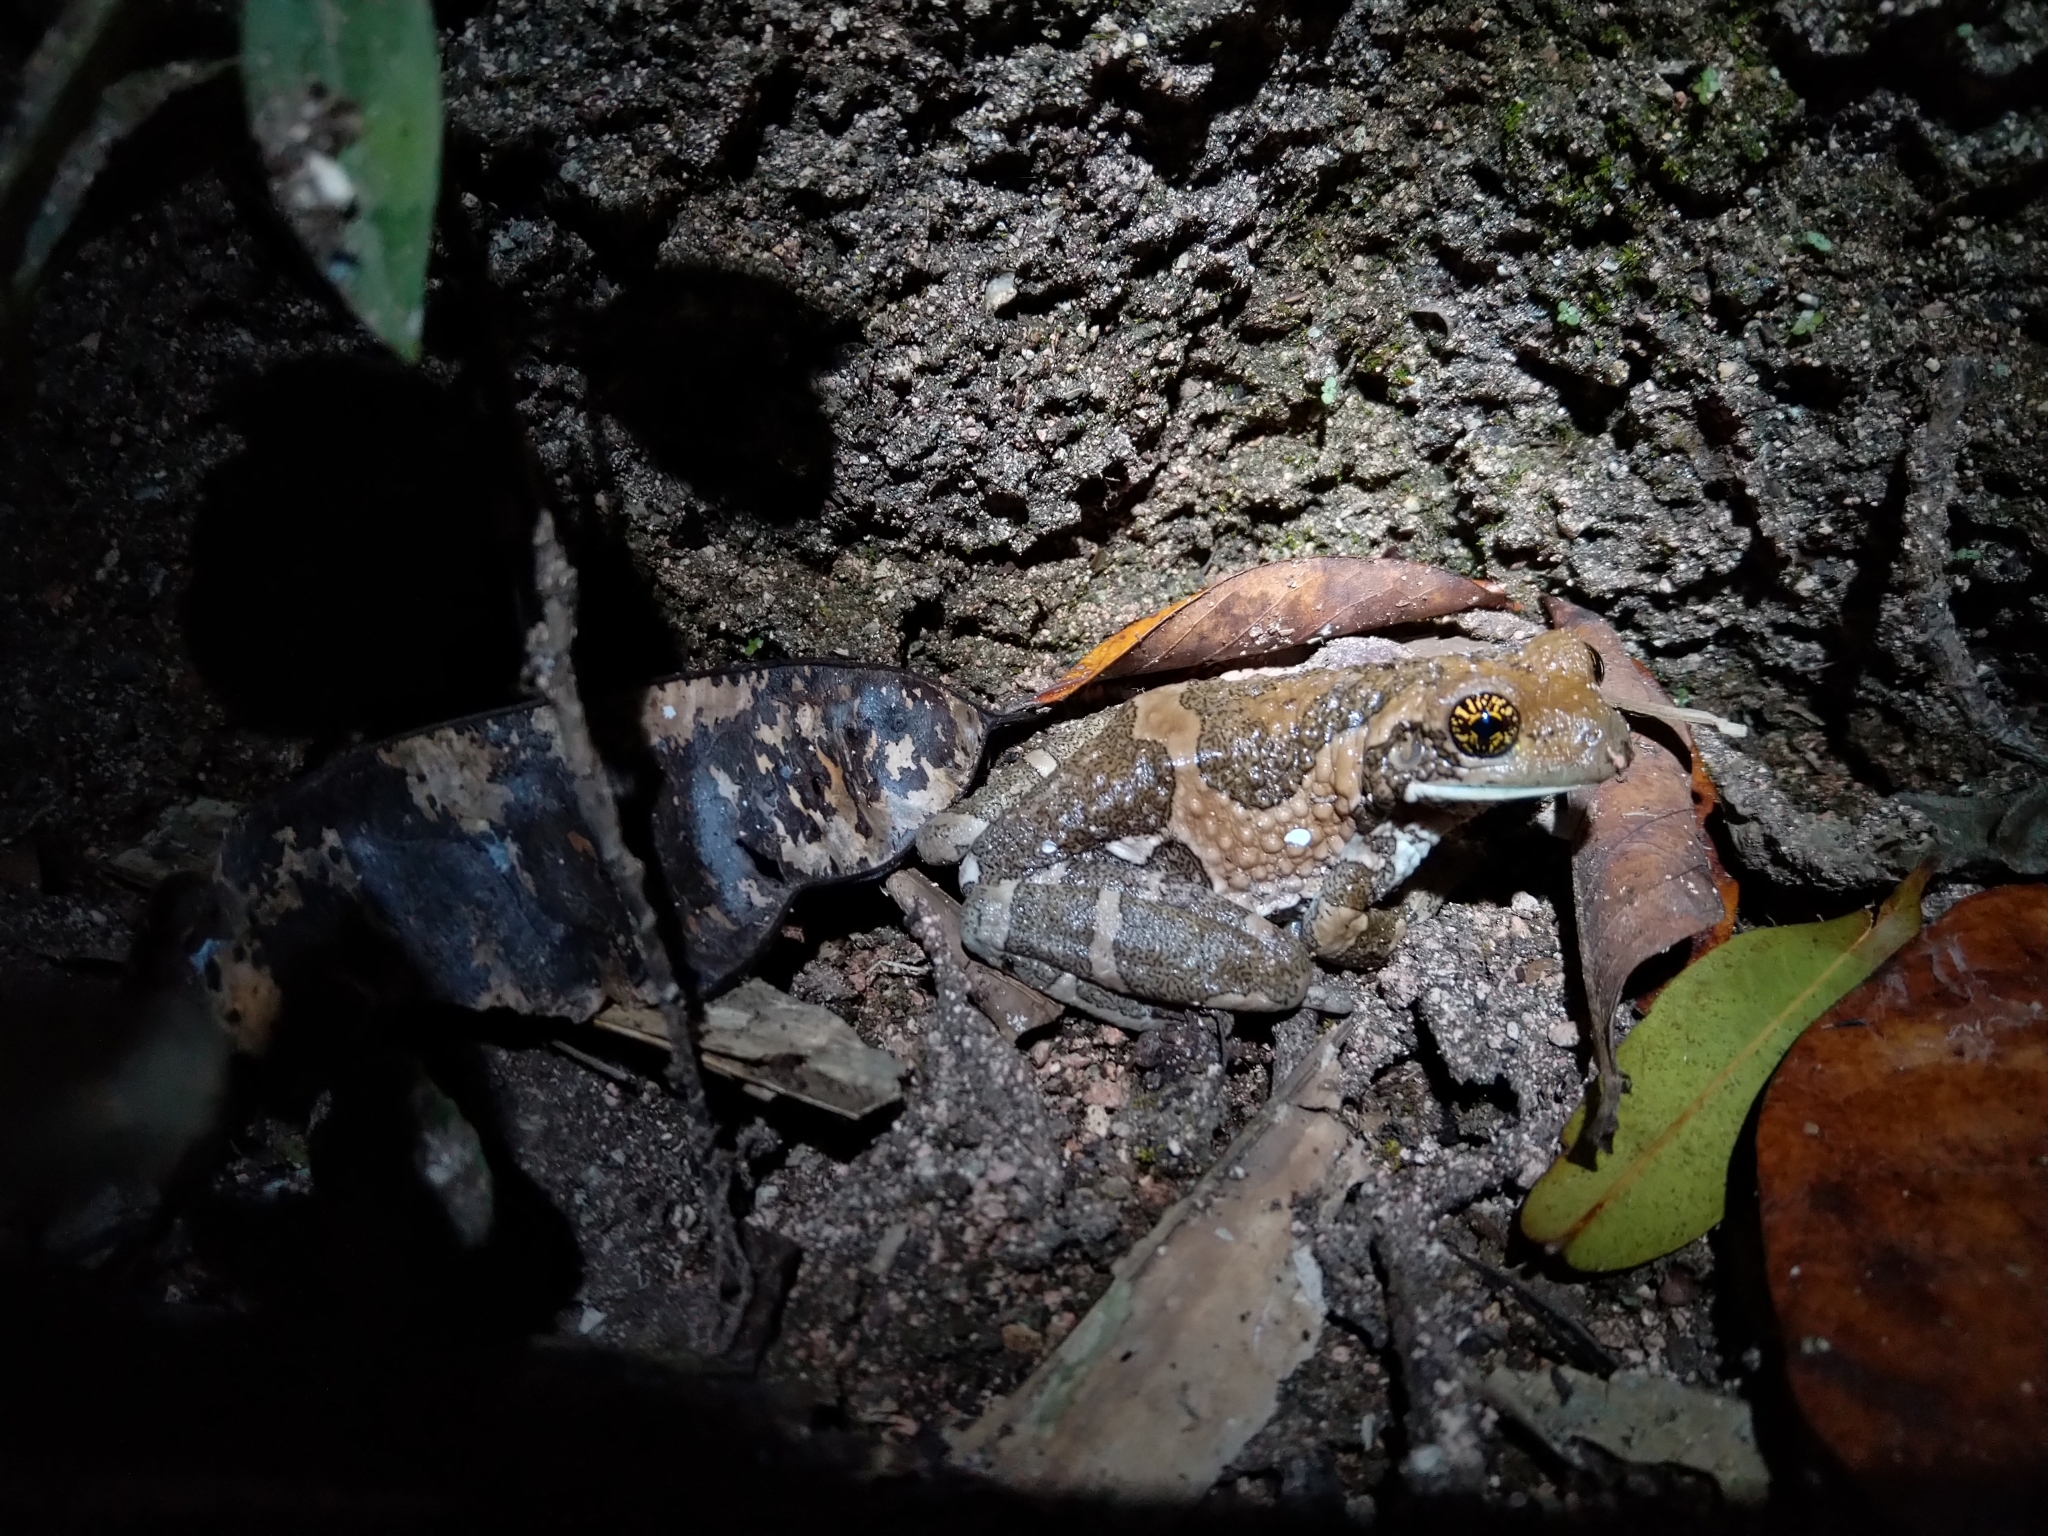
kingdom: Animalia
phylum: Chordata
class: Amphibia
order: Anura
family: Hylidae
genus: Trachycephalus
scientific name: Trachycephalus vermiculatus
